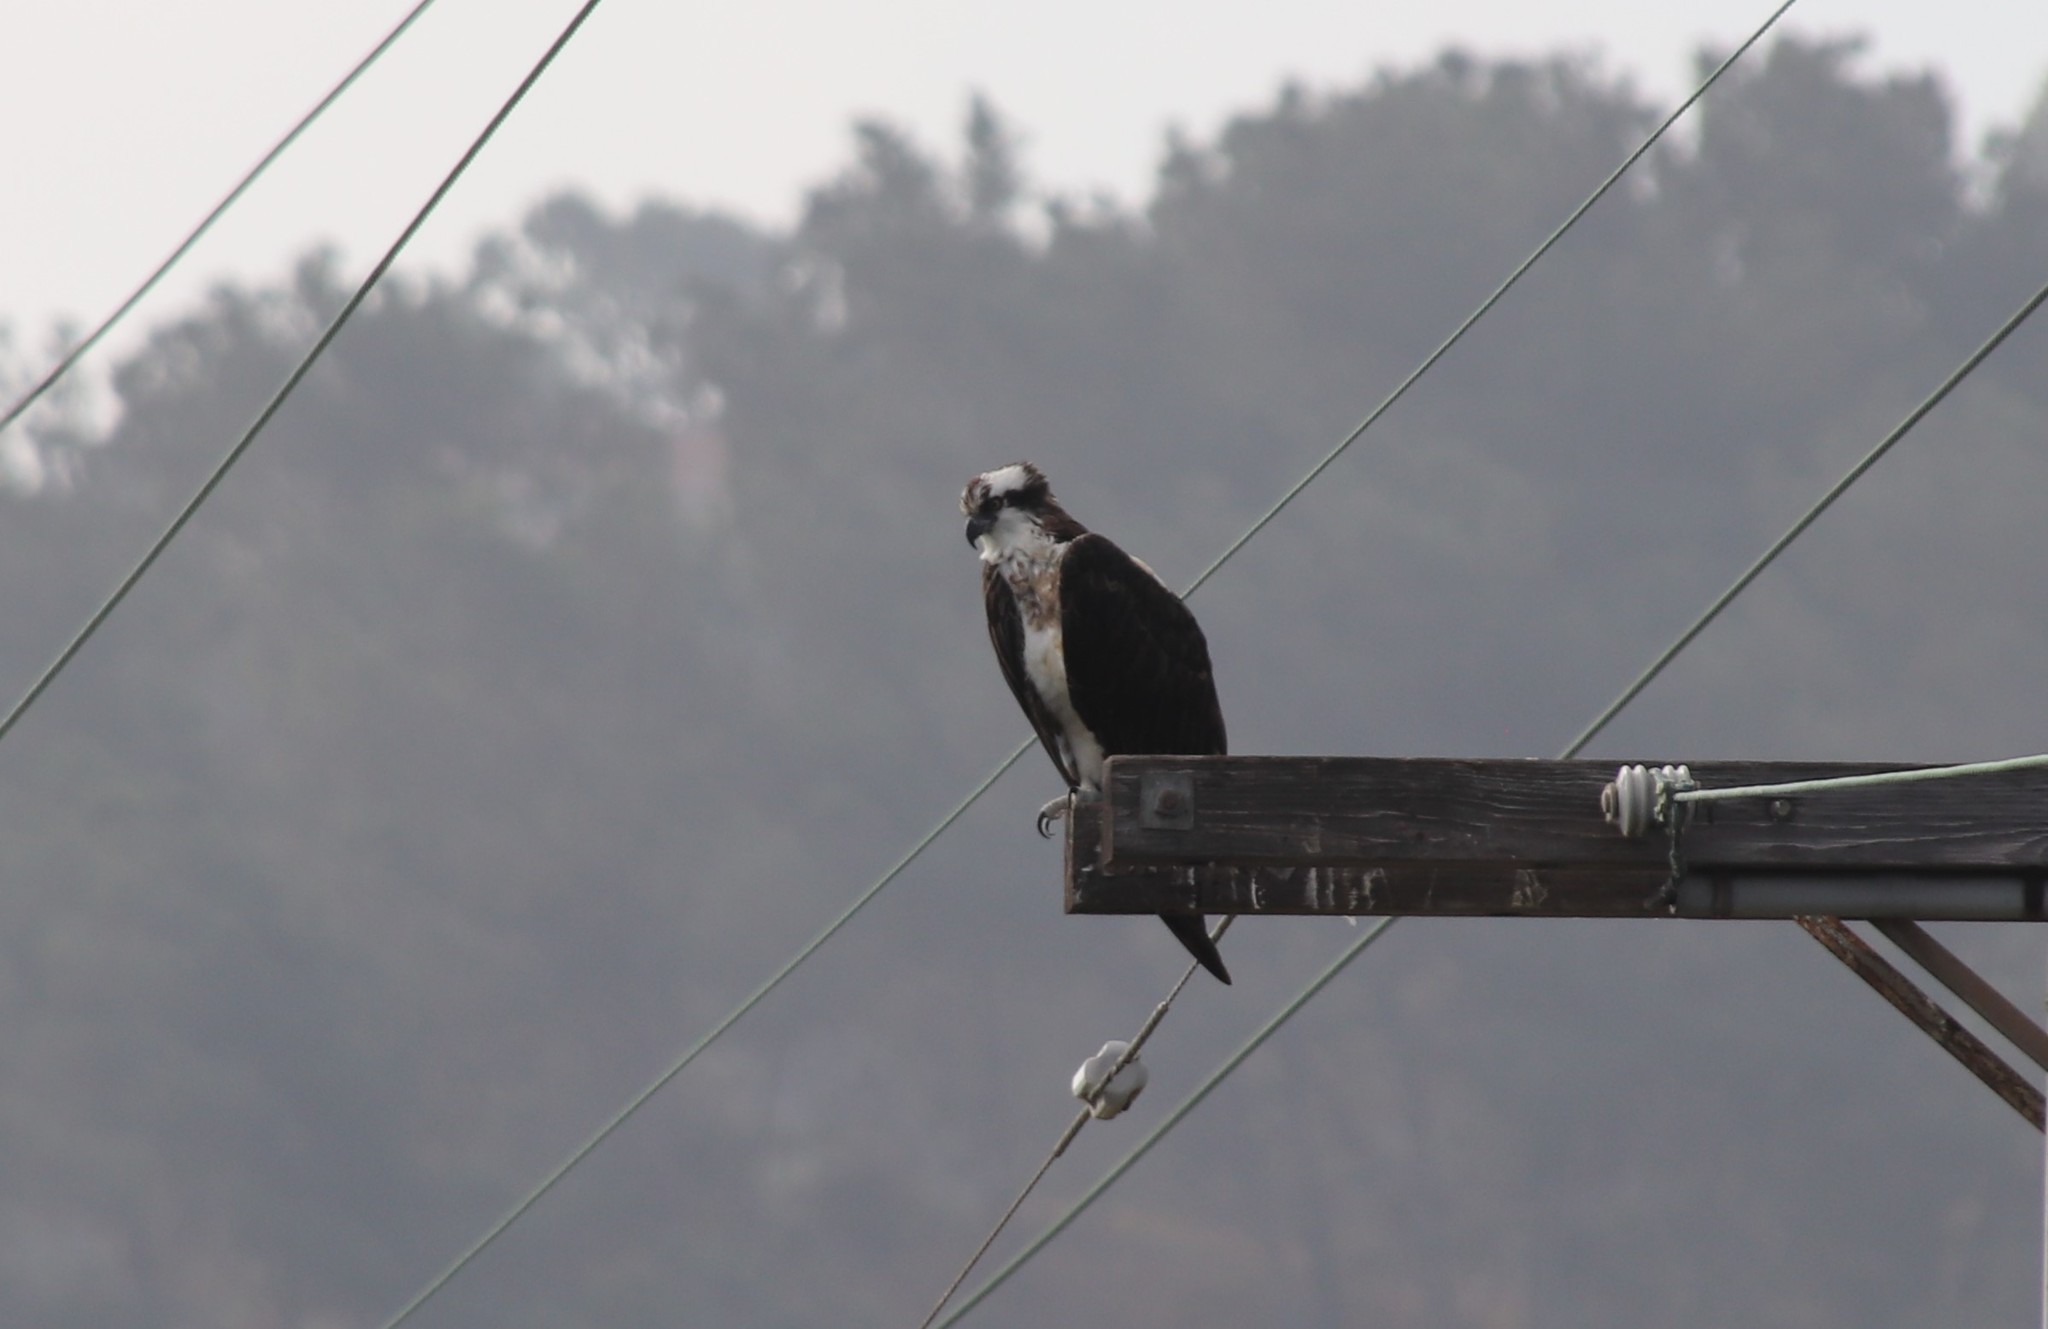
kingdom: Animalia
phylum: Chordata
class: Aves
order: Accipitriformes
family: Pandionidae
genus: Pandion
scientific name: Pandion haliaetus
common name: Osprey
